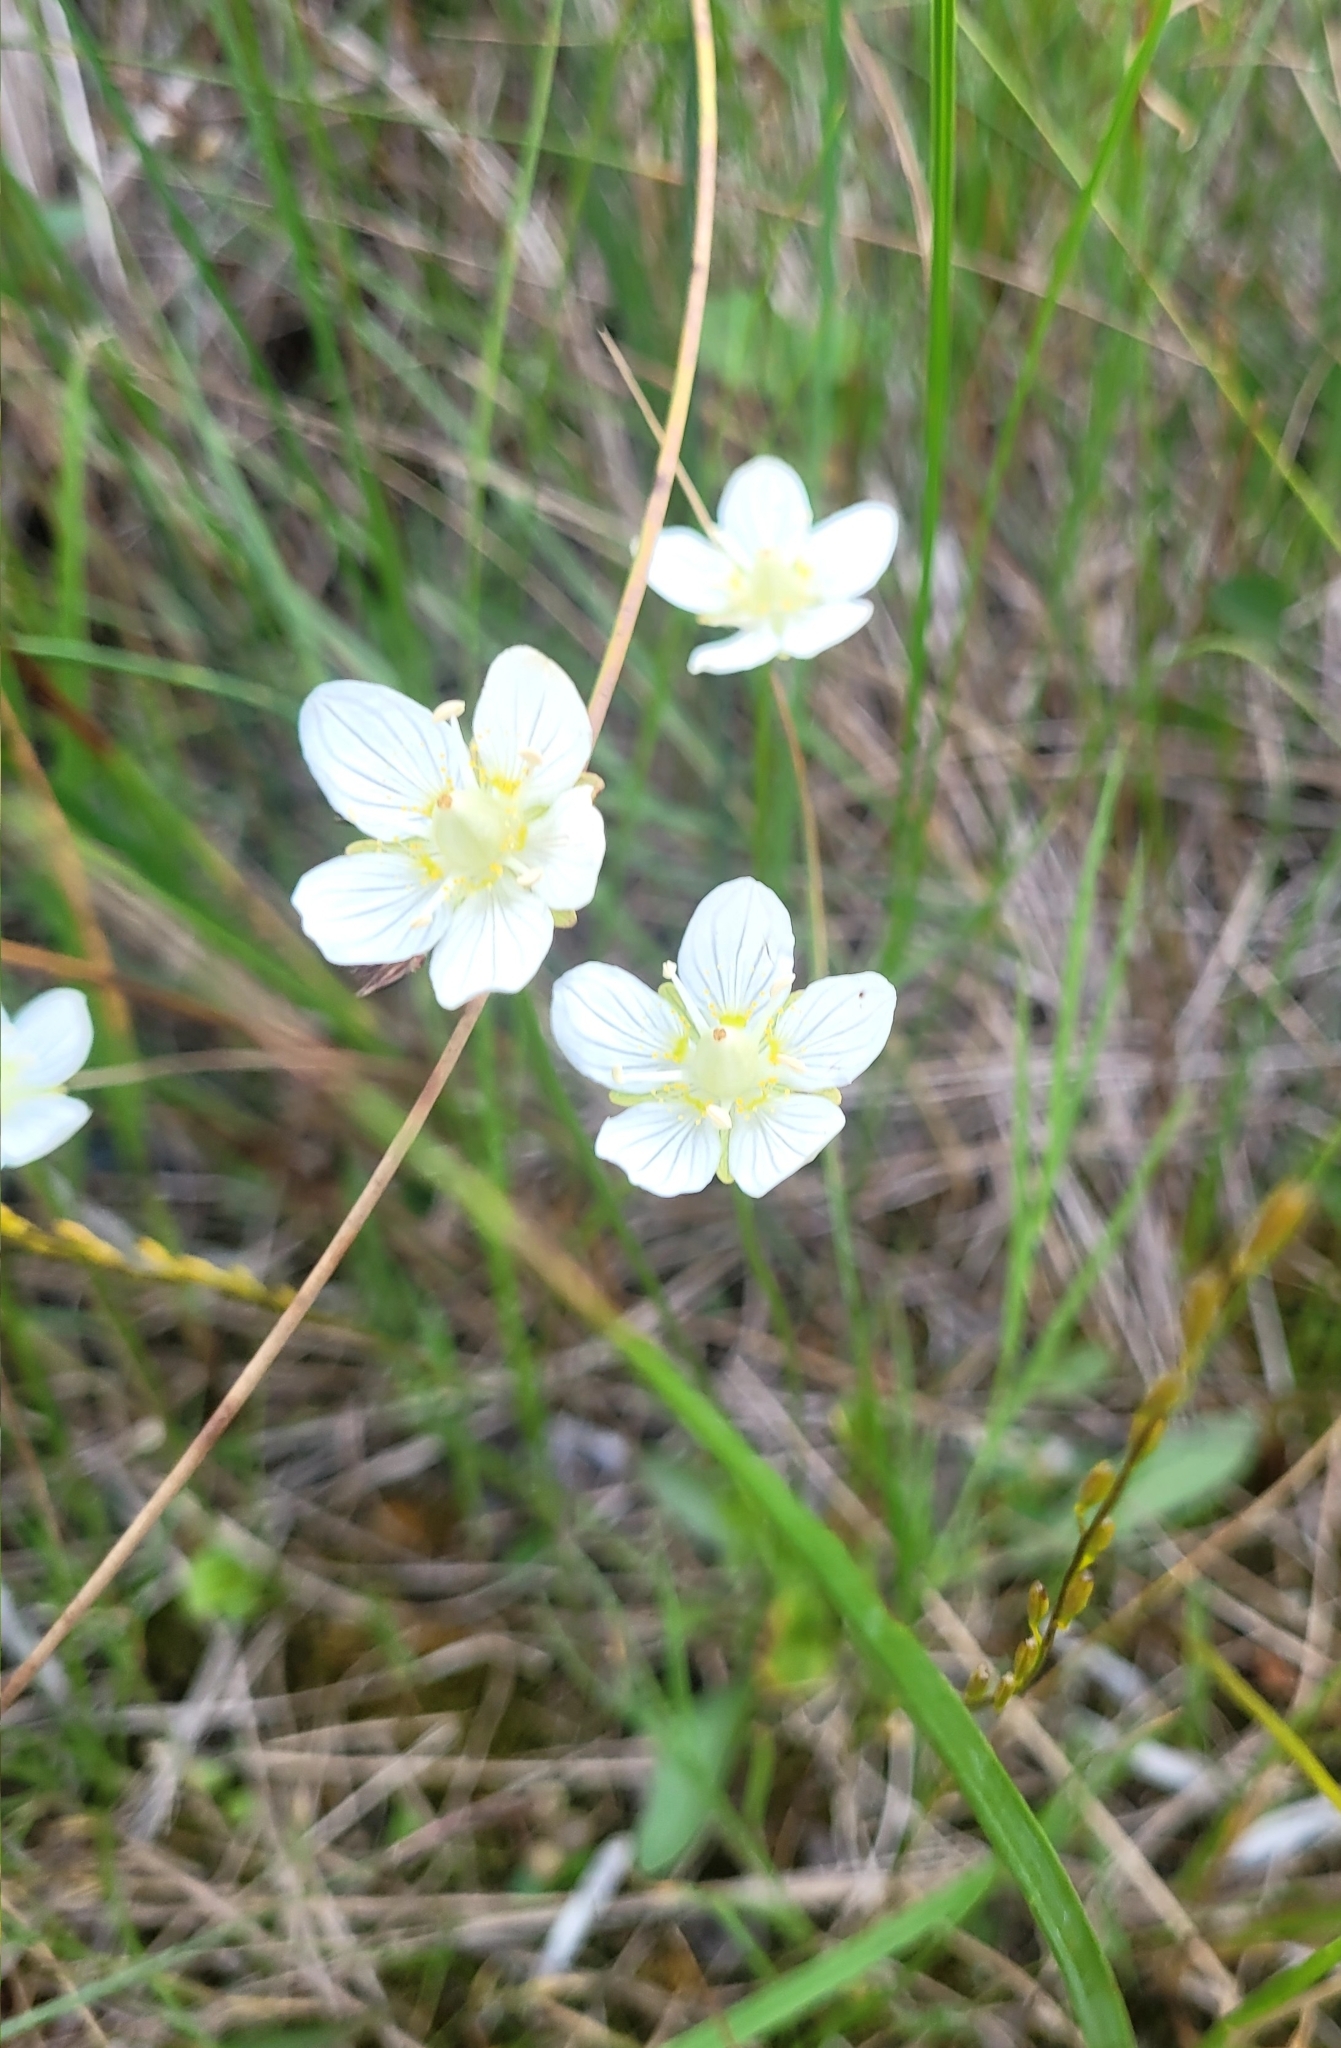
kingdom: Plantae
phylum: Tracheophyta
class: Magnoliopsida
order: Celastrales
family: Parnassiaceae
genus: Parnassia
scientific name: Parnassia palustris
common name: Grass-of-parnassus
